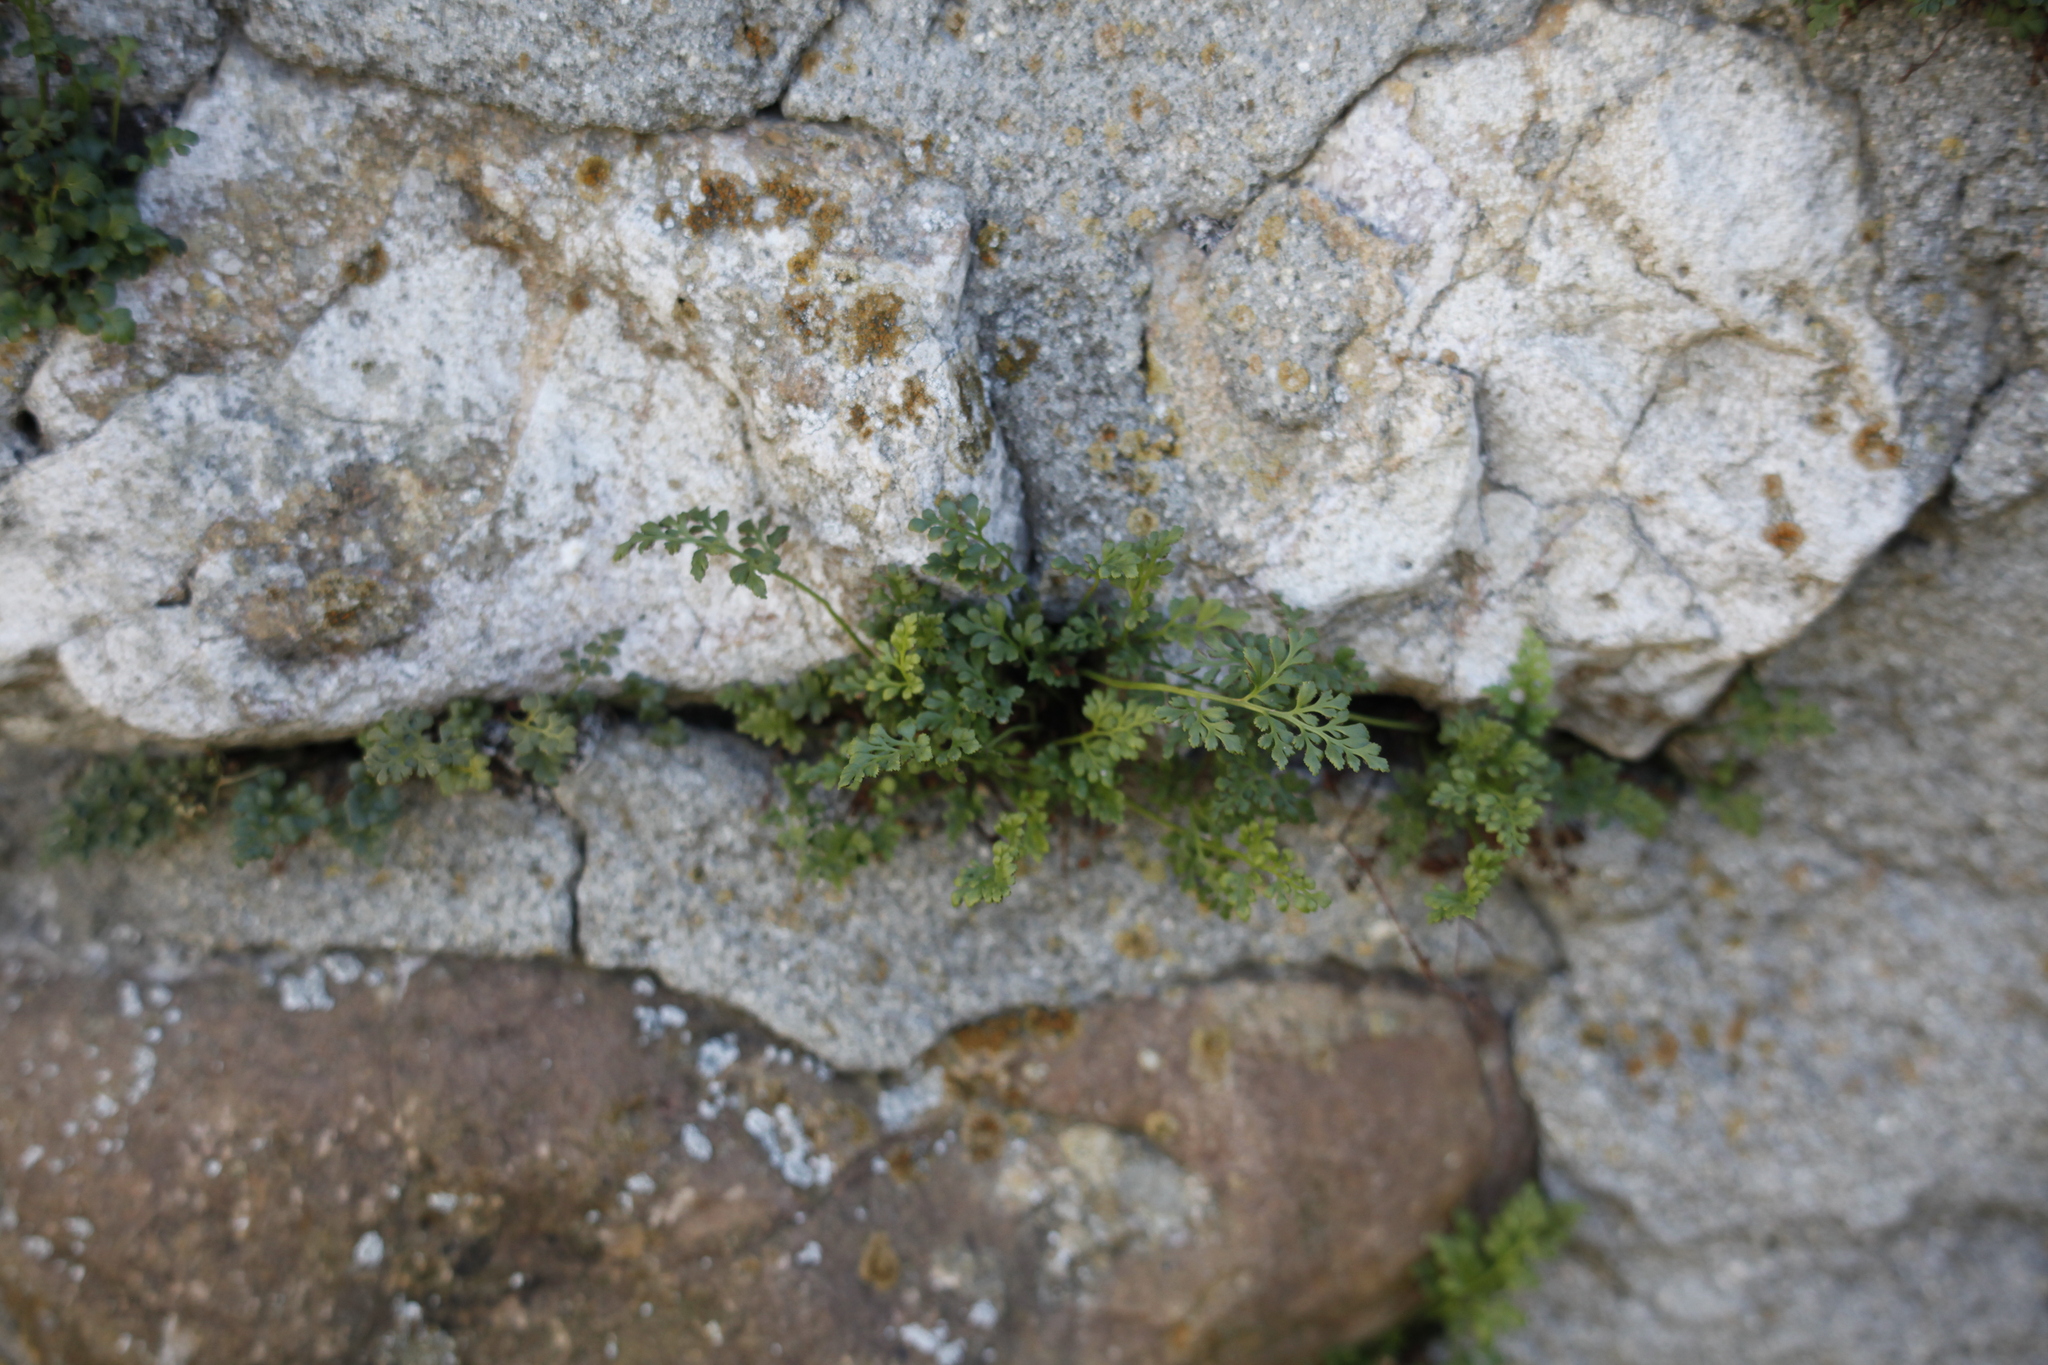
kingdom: Plantae
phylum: Tracheophyta
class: Polypodiopsida
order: Polypodiales
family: Aspleniaceae
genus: Asplenium
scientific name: Asplenium ruta-muraria
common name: Wall-rue
